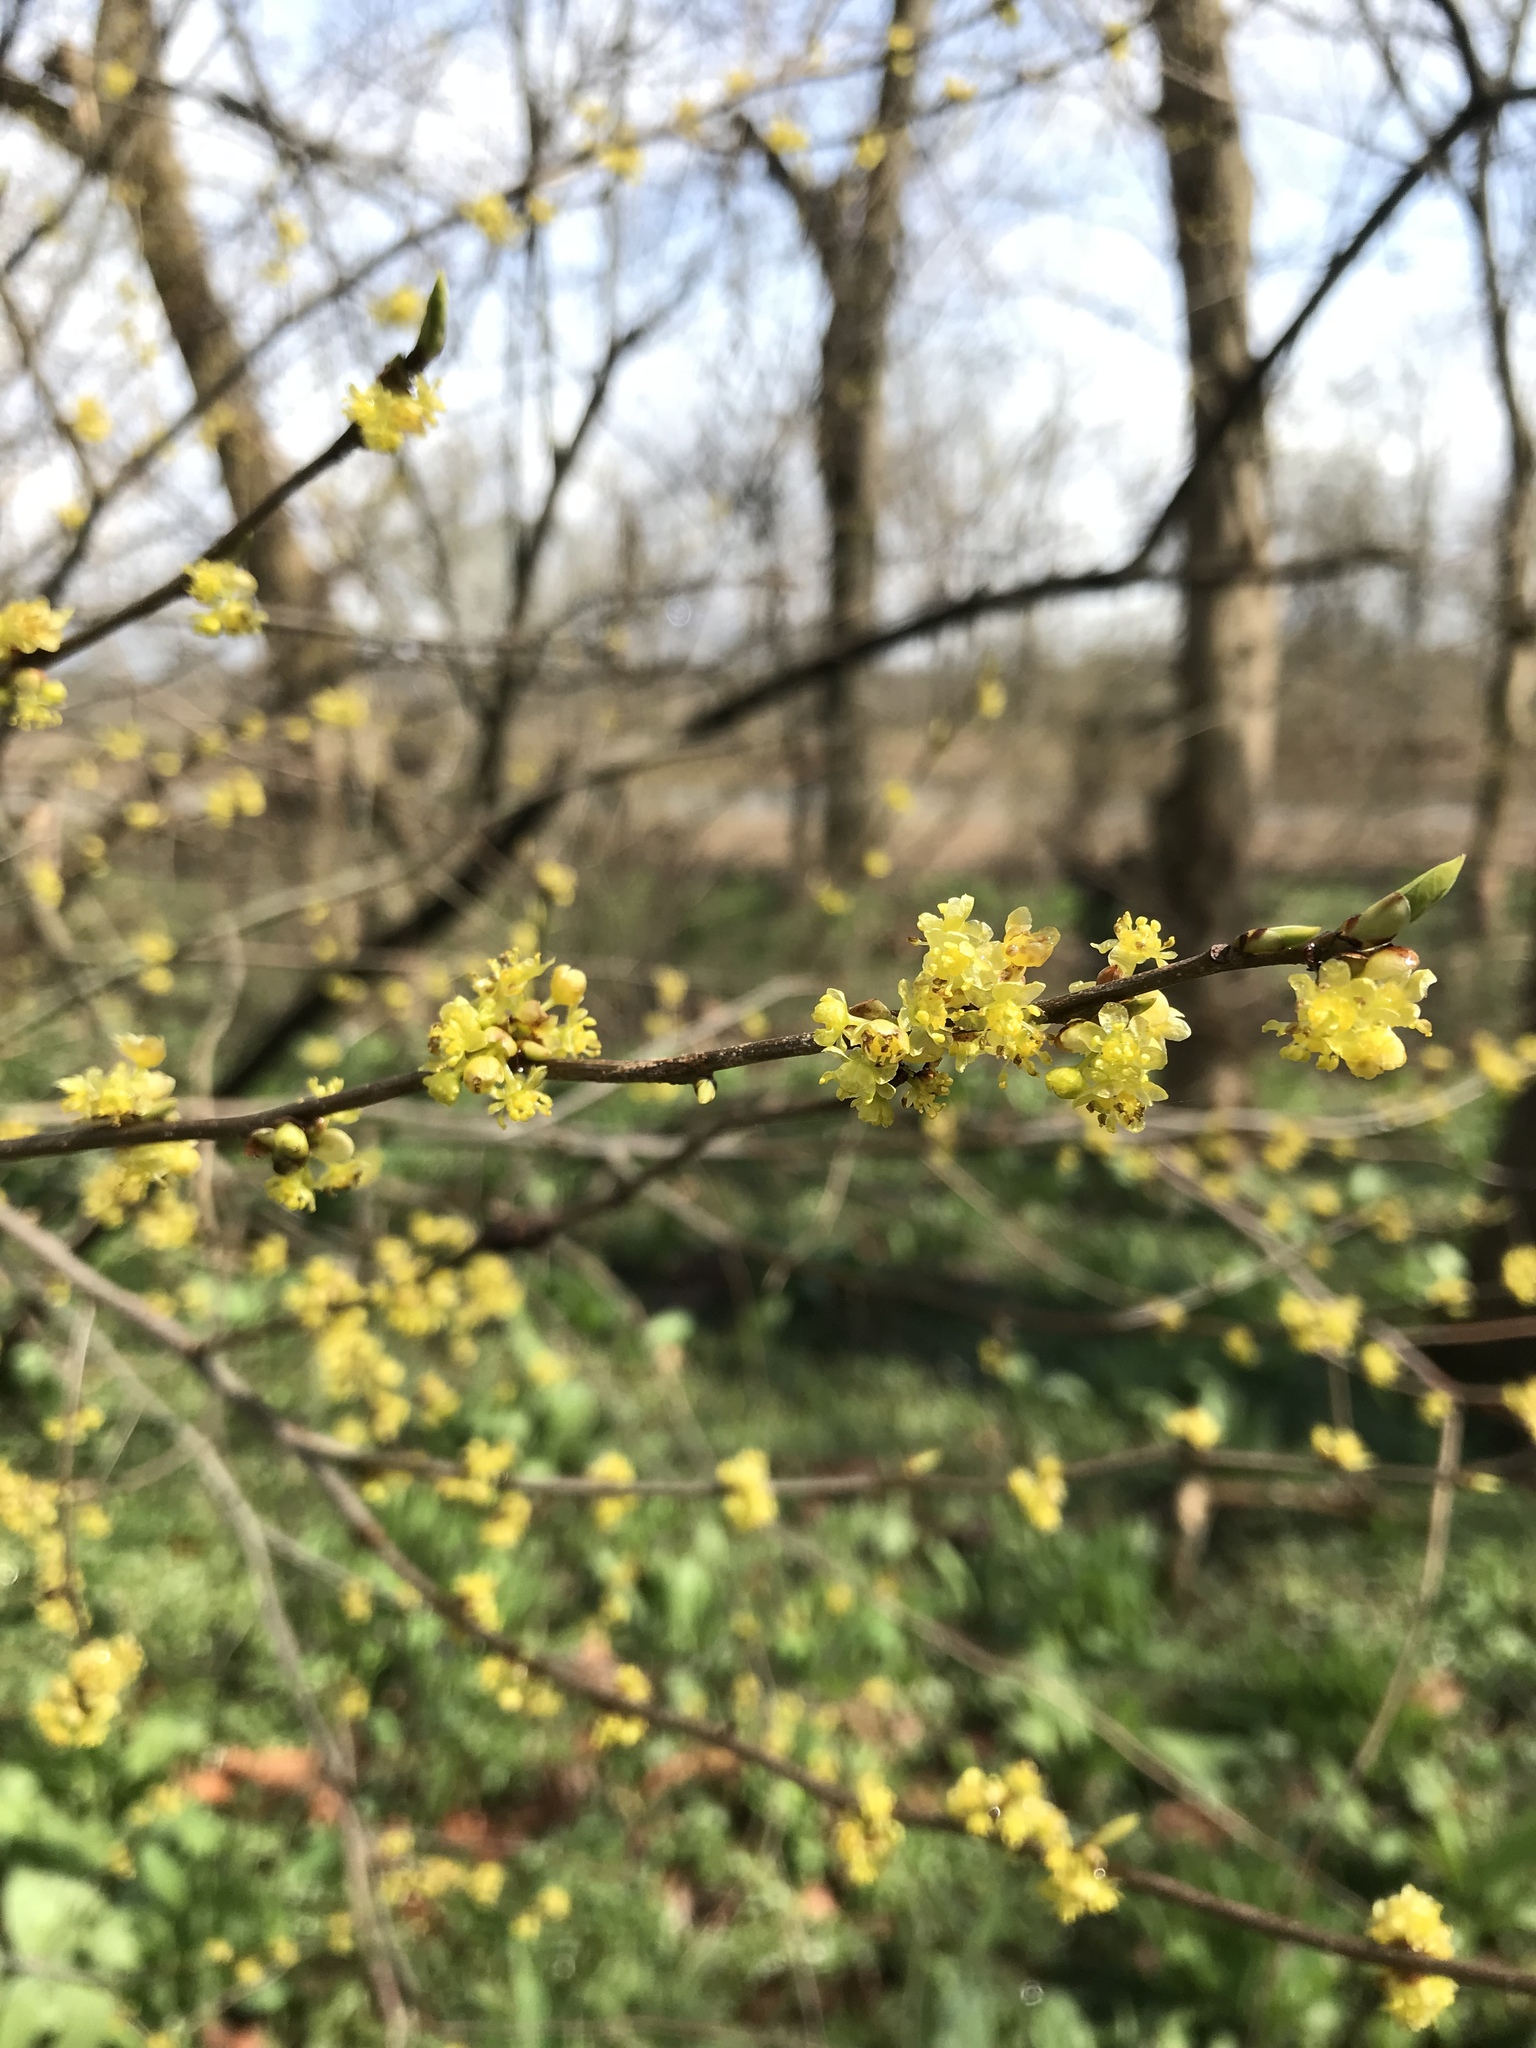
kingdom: Plantae
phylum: Tracheophyta
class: Magnoliopsida
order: Laurales
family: Lauraceae
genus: Lindera
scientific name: Lindera benzoin
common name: Spicebush
